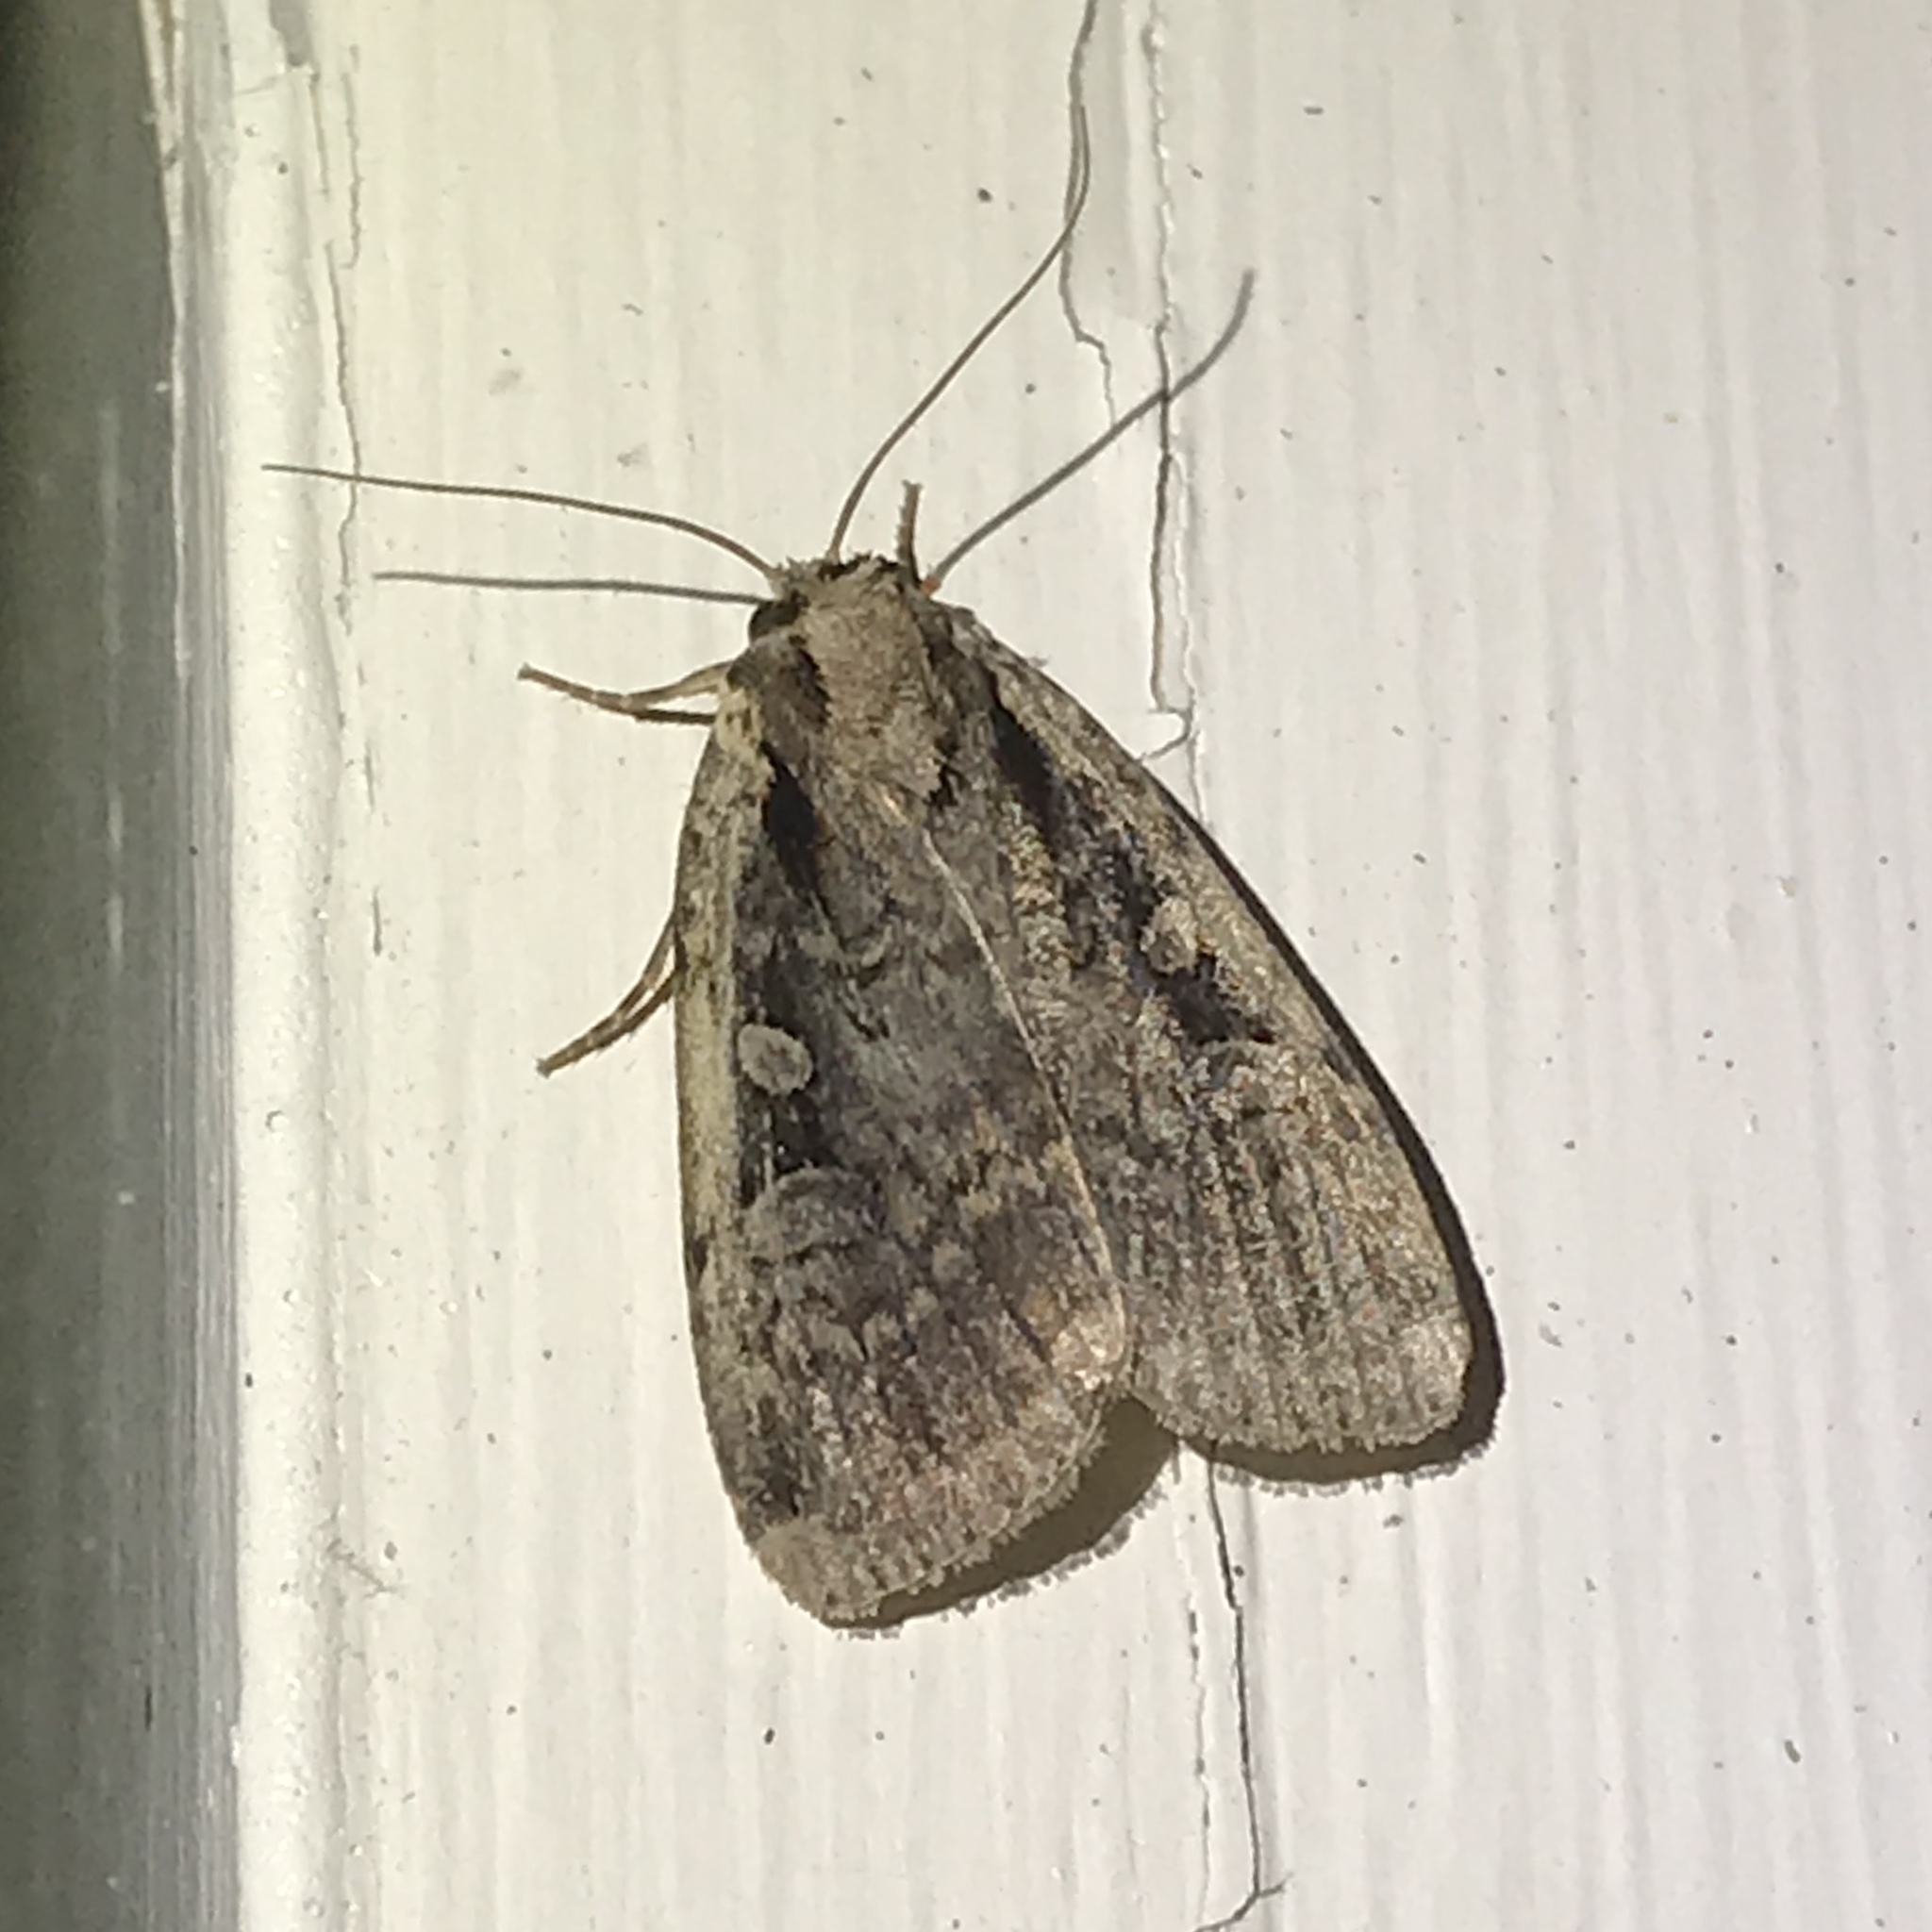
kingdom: Animalia
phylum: Arthropoda
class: Insecta
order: Lepidoptera
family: Noctuidae
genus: Eueretagrotis
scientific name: Eueretagrotis perattentus
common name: Two-spot dart moth
